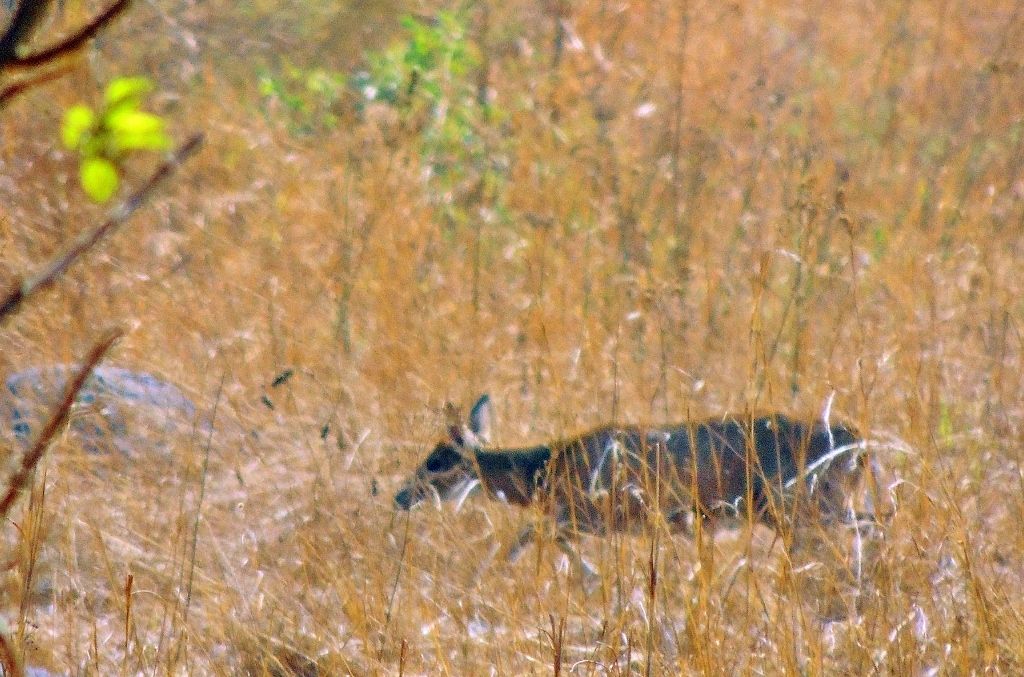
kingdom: Animalia
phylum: Chordata
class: Mammalia
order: Artiodactyla
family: Bovidae
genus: Sylvicapra
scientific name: Sylvicapra grimmia
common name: Bush duiker
